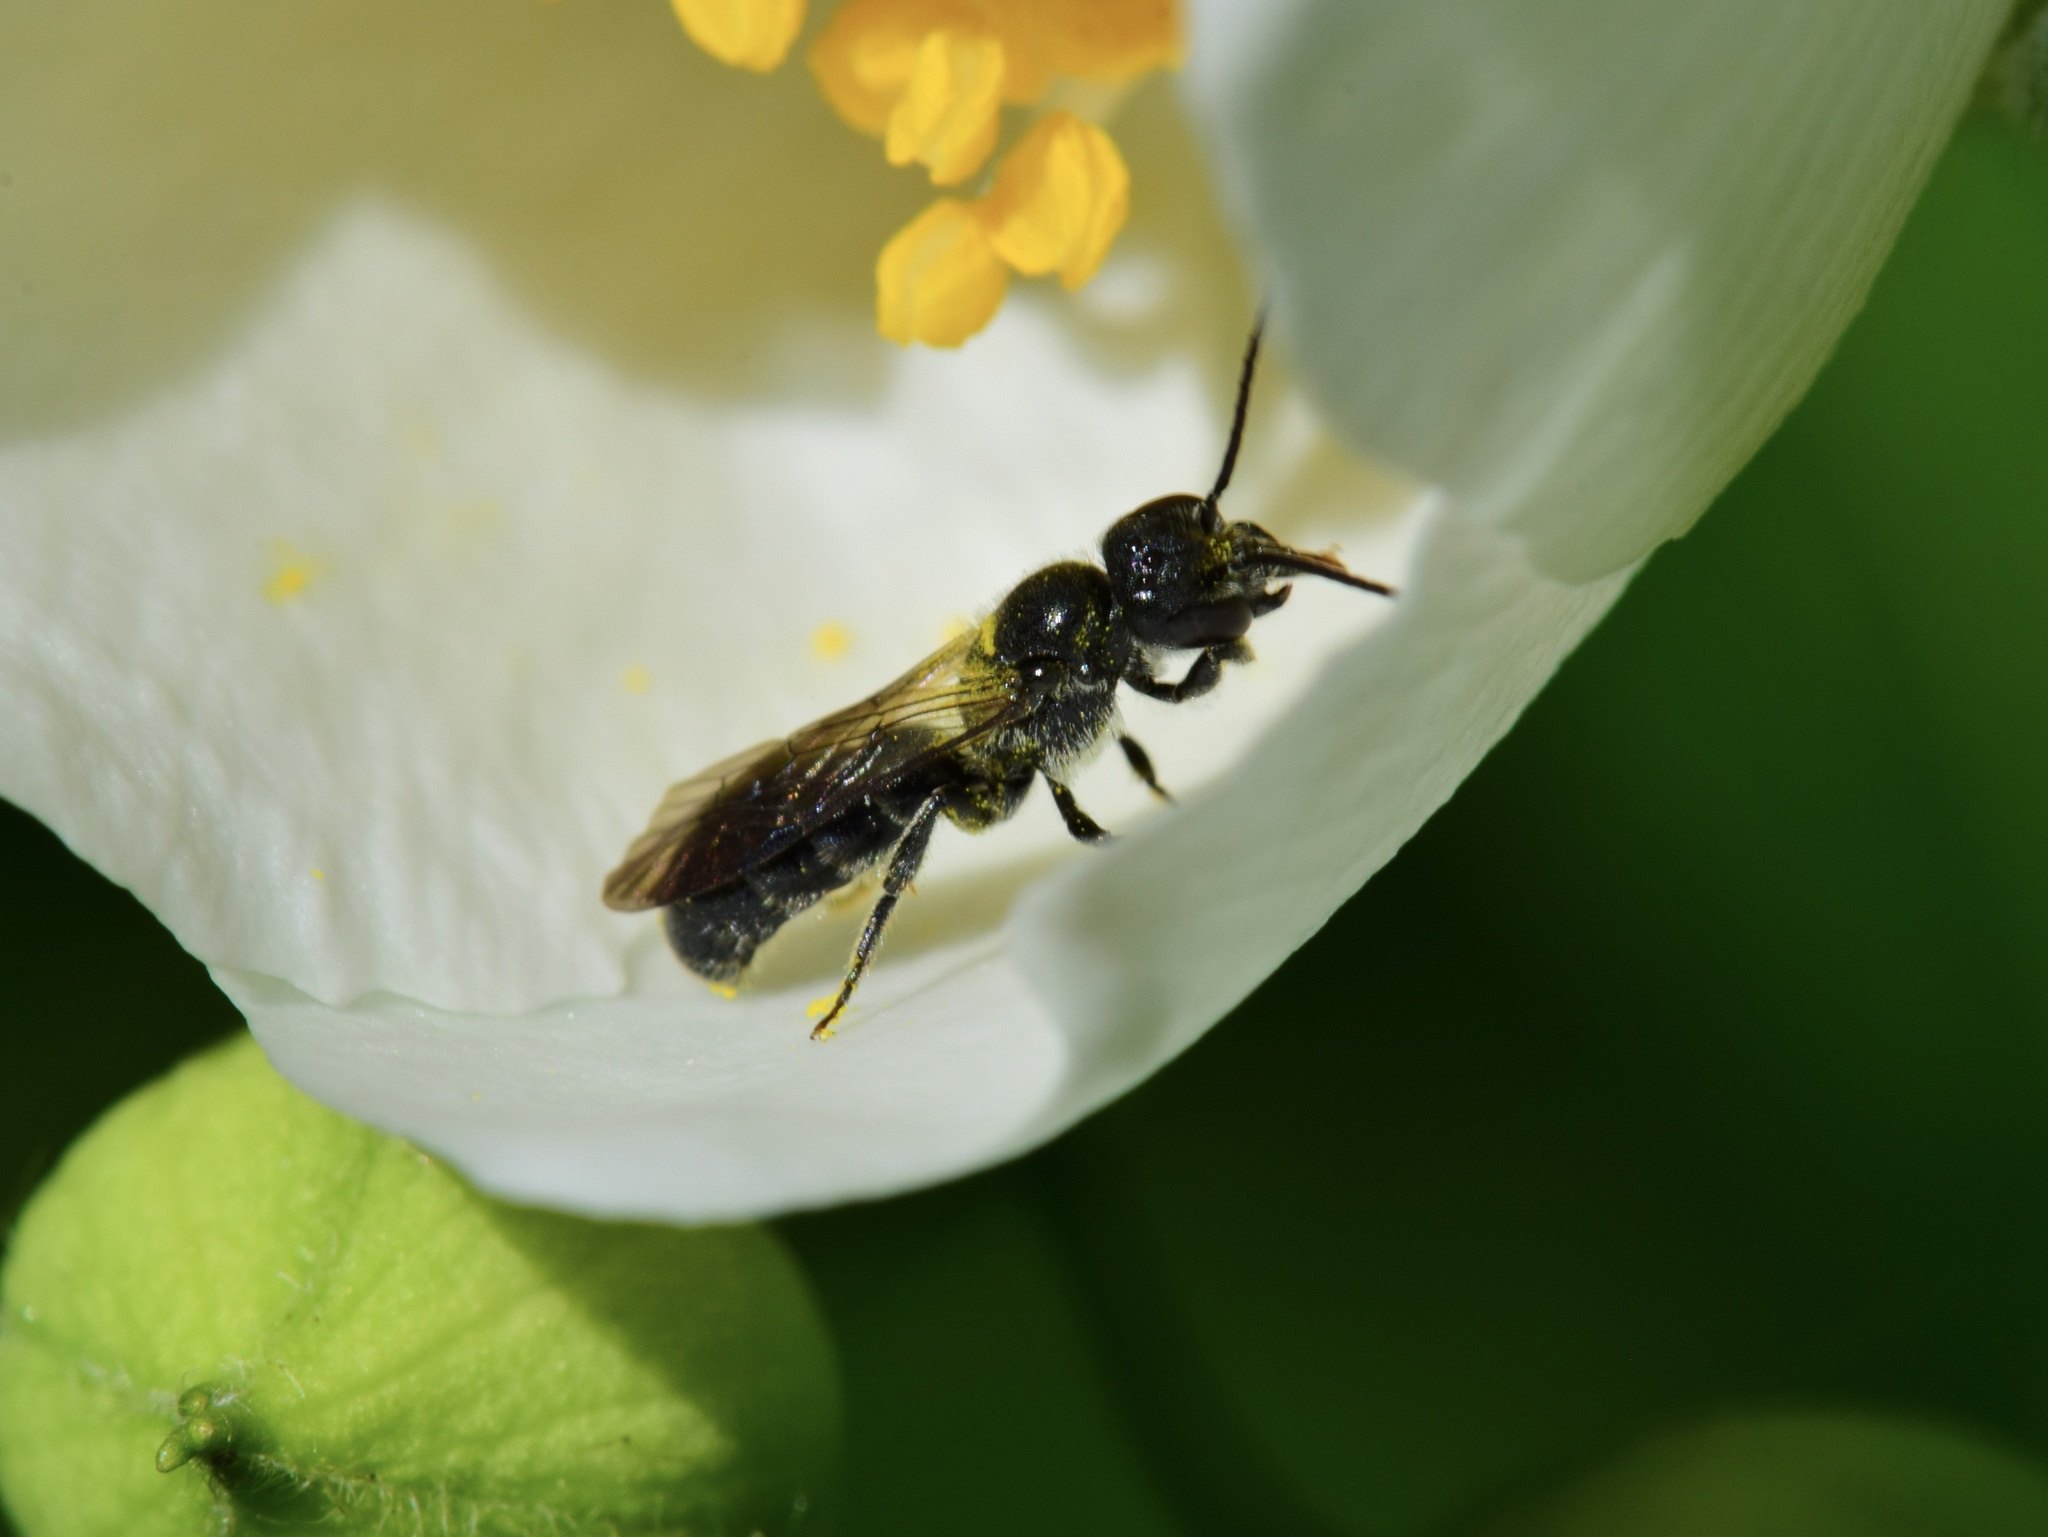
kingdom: Animalia
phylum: Arthropoda
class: Insecta
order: Hymenoptera
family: Megachilidae
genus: Chelostoma
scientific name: Chelostoma philadelphi
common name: Mock-orange scissor bee
